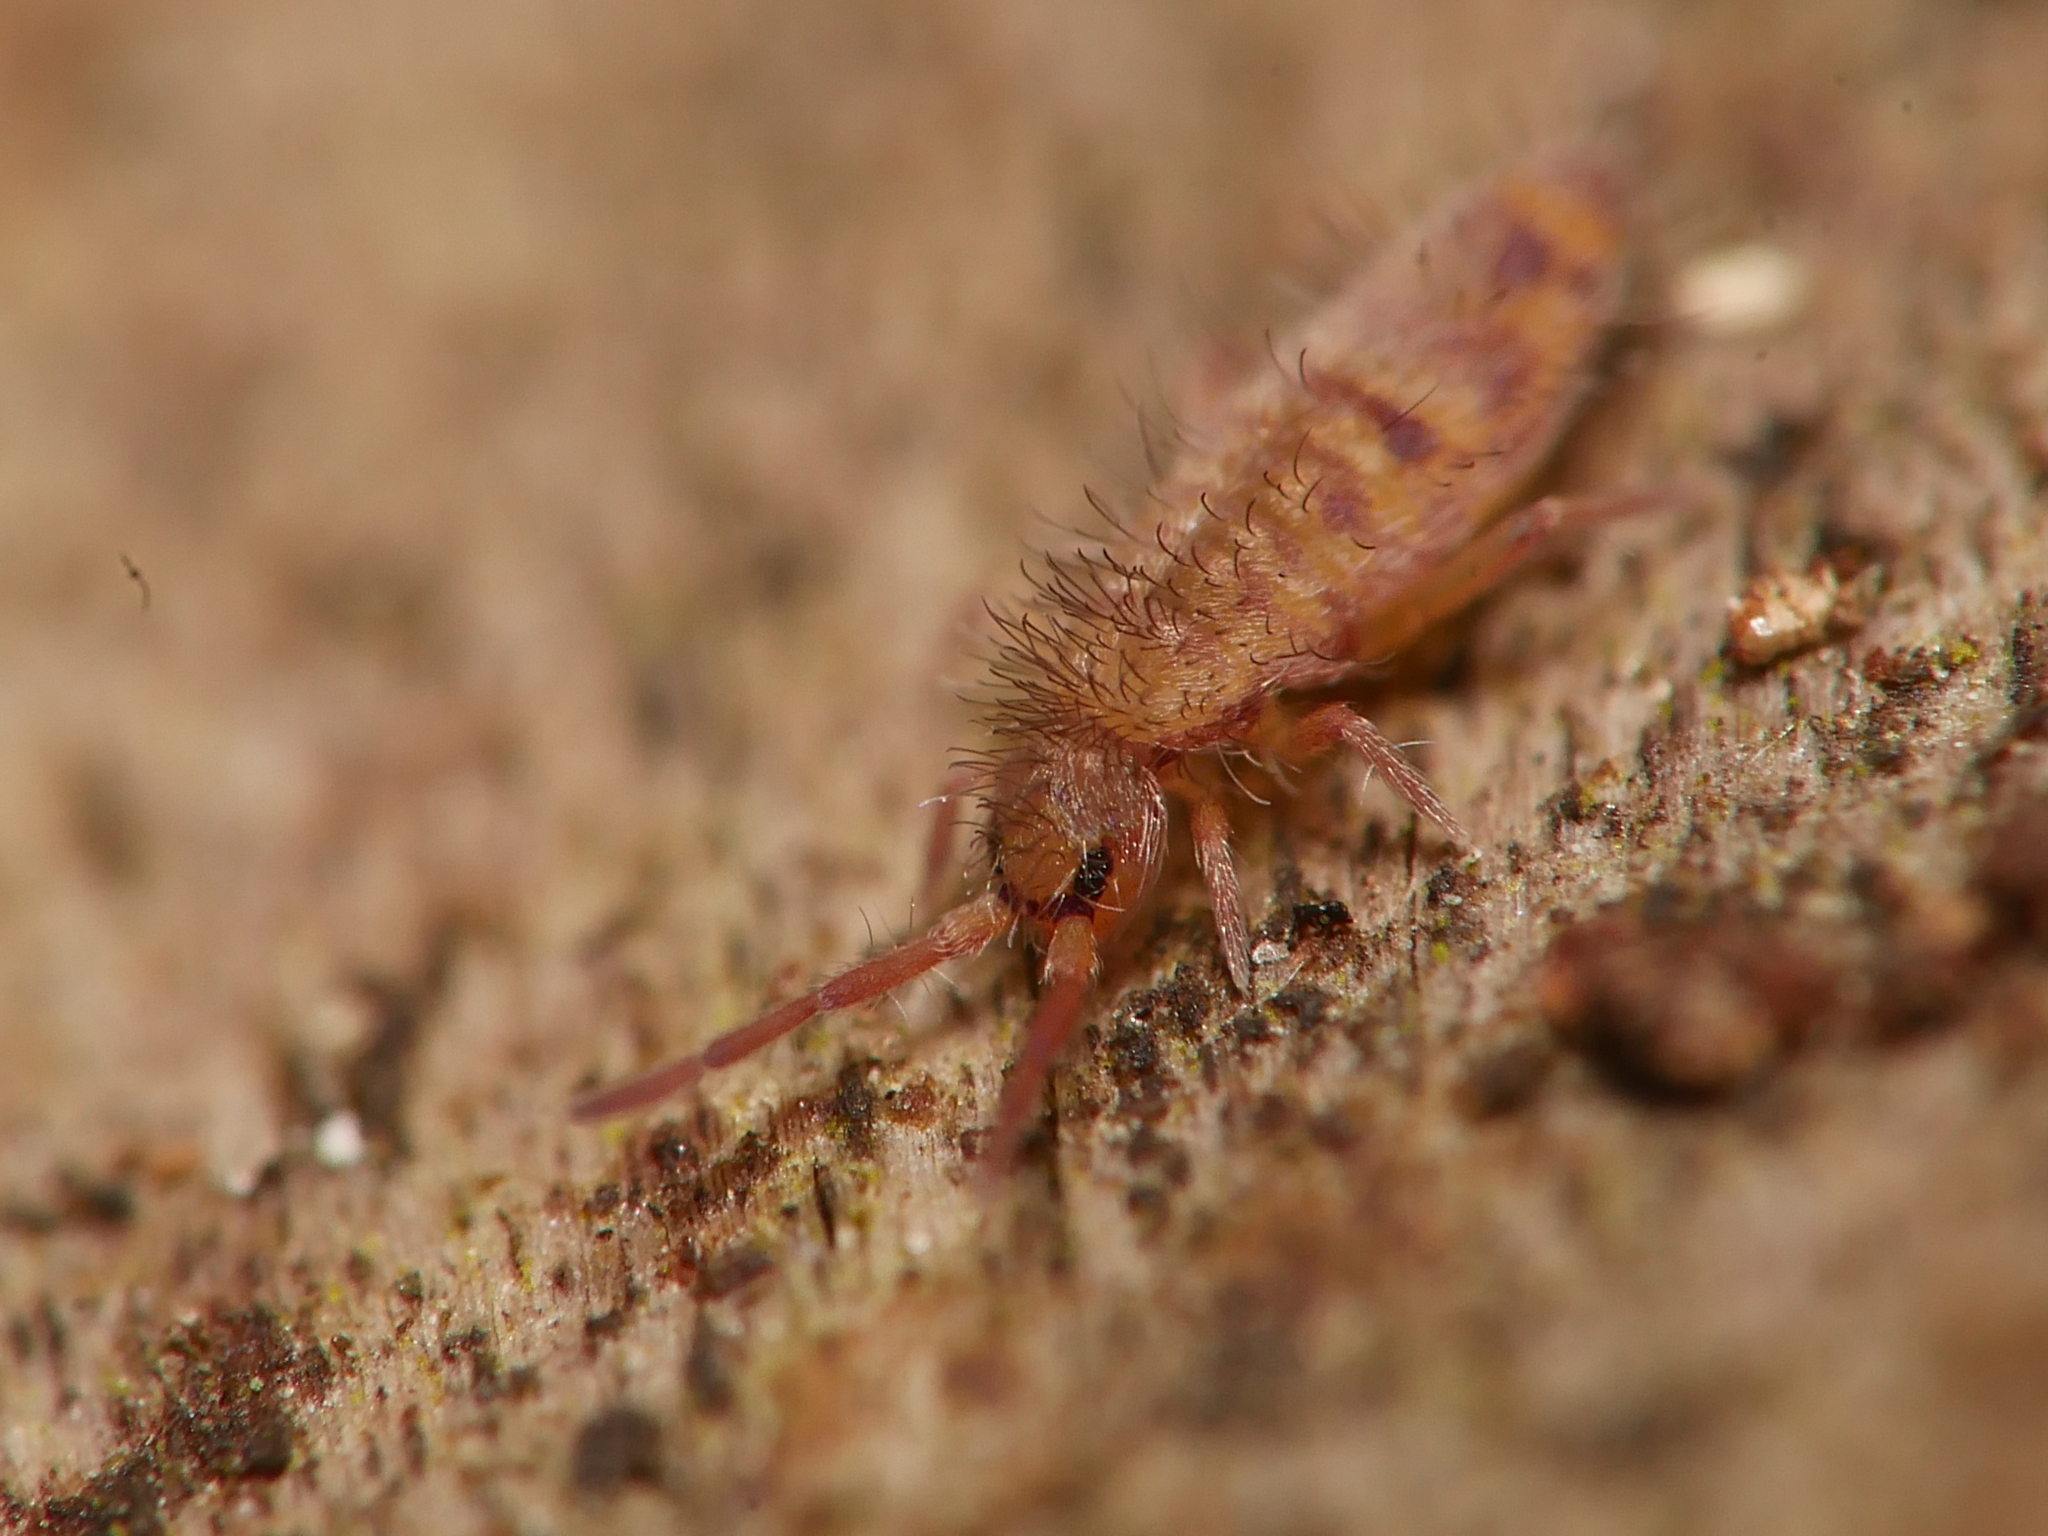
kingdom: Animalia
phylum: Arthropoda
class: Collembola
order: Entomobryomorpha
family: Entomobryidae
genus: Entomobrya
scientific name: Entomobrya multifasciata
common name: Springtail
